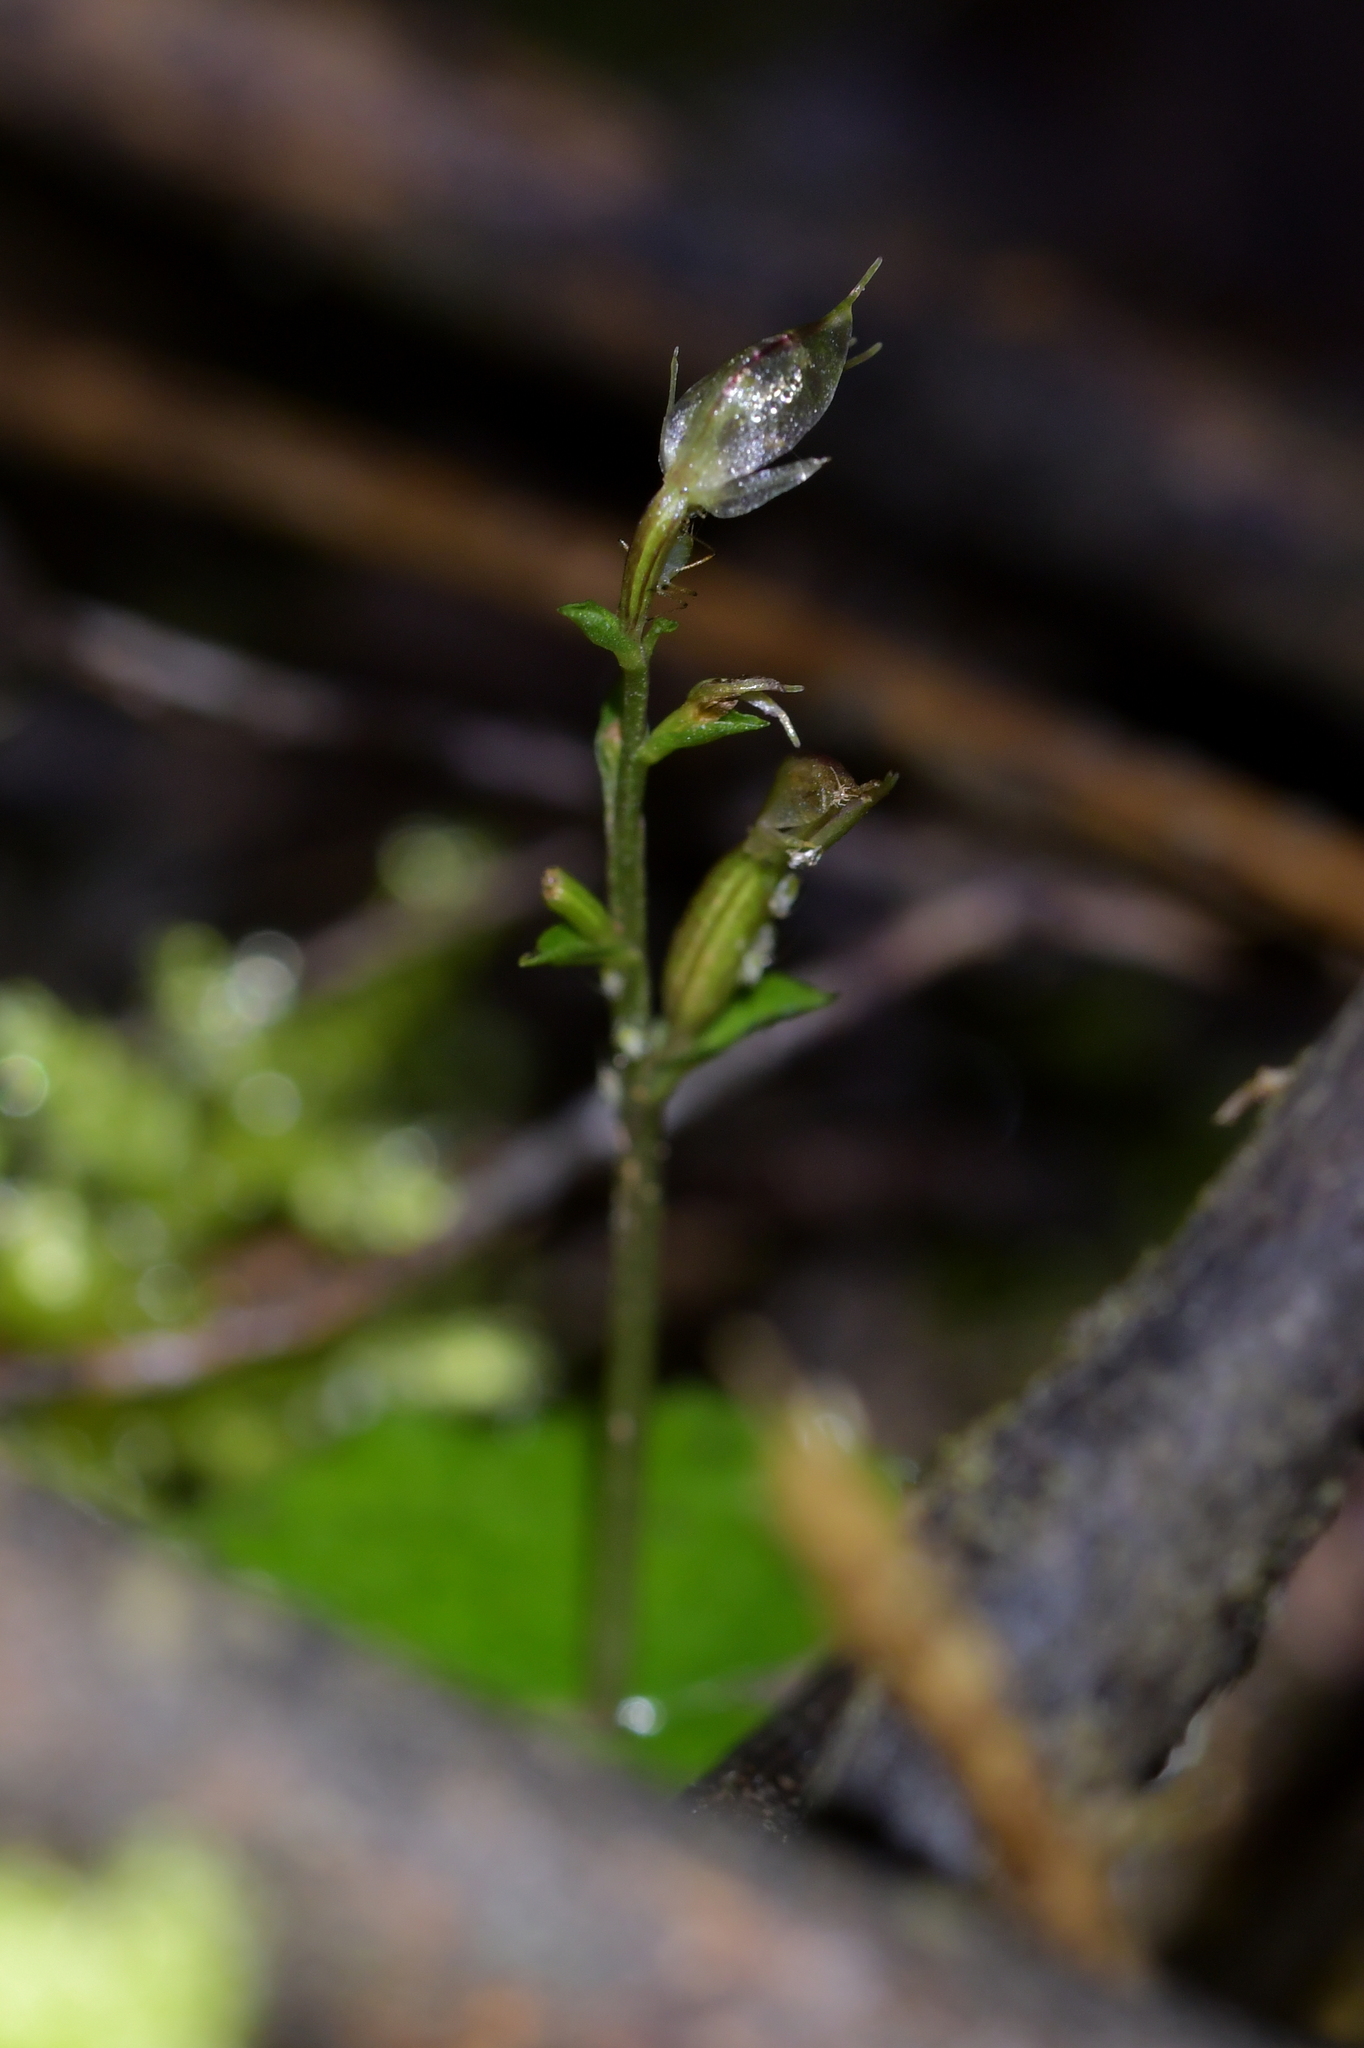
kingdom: Plantae
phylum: Tracheophyta
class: Liliopsida
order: Asparagales
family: Orchidaceae
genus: Acianthus
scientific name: Acianthus sinclairii
